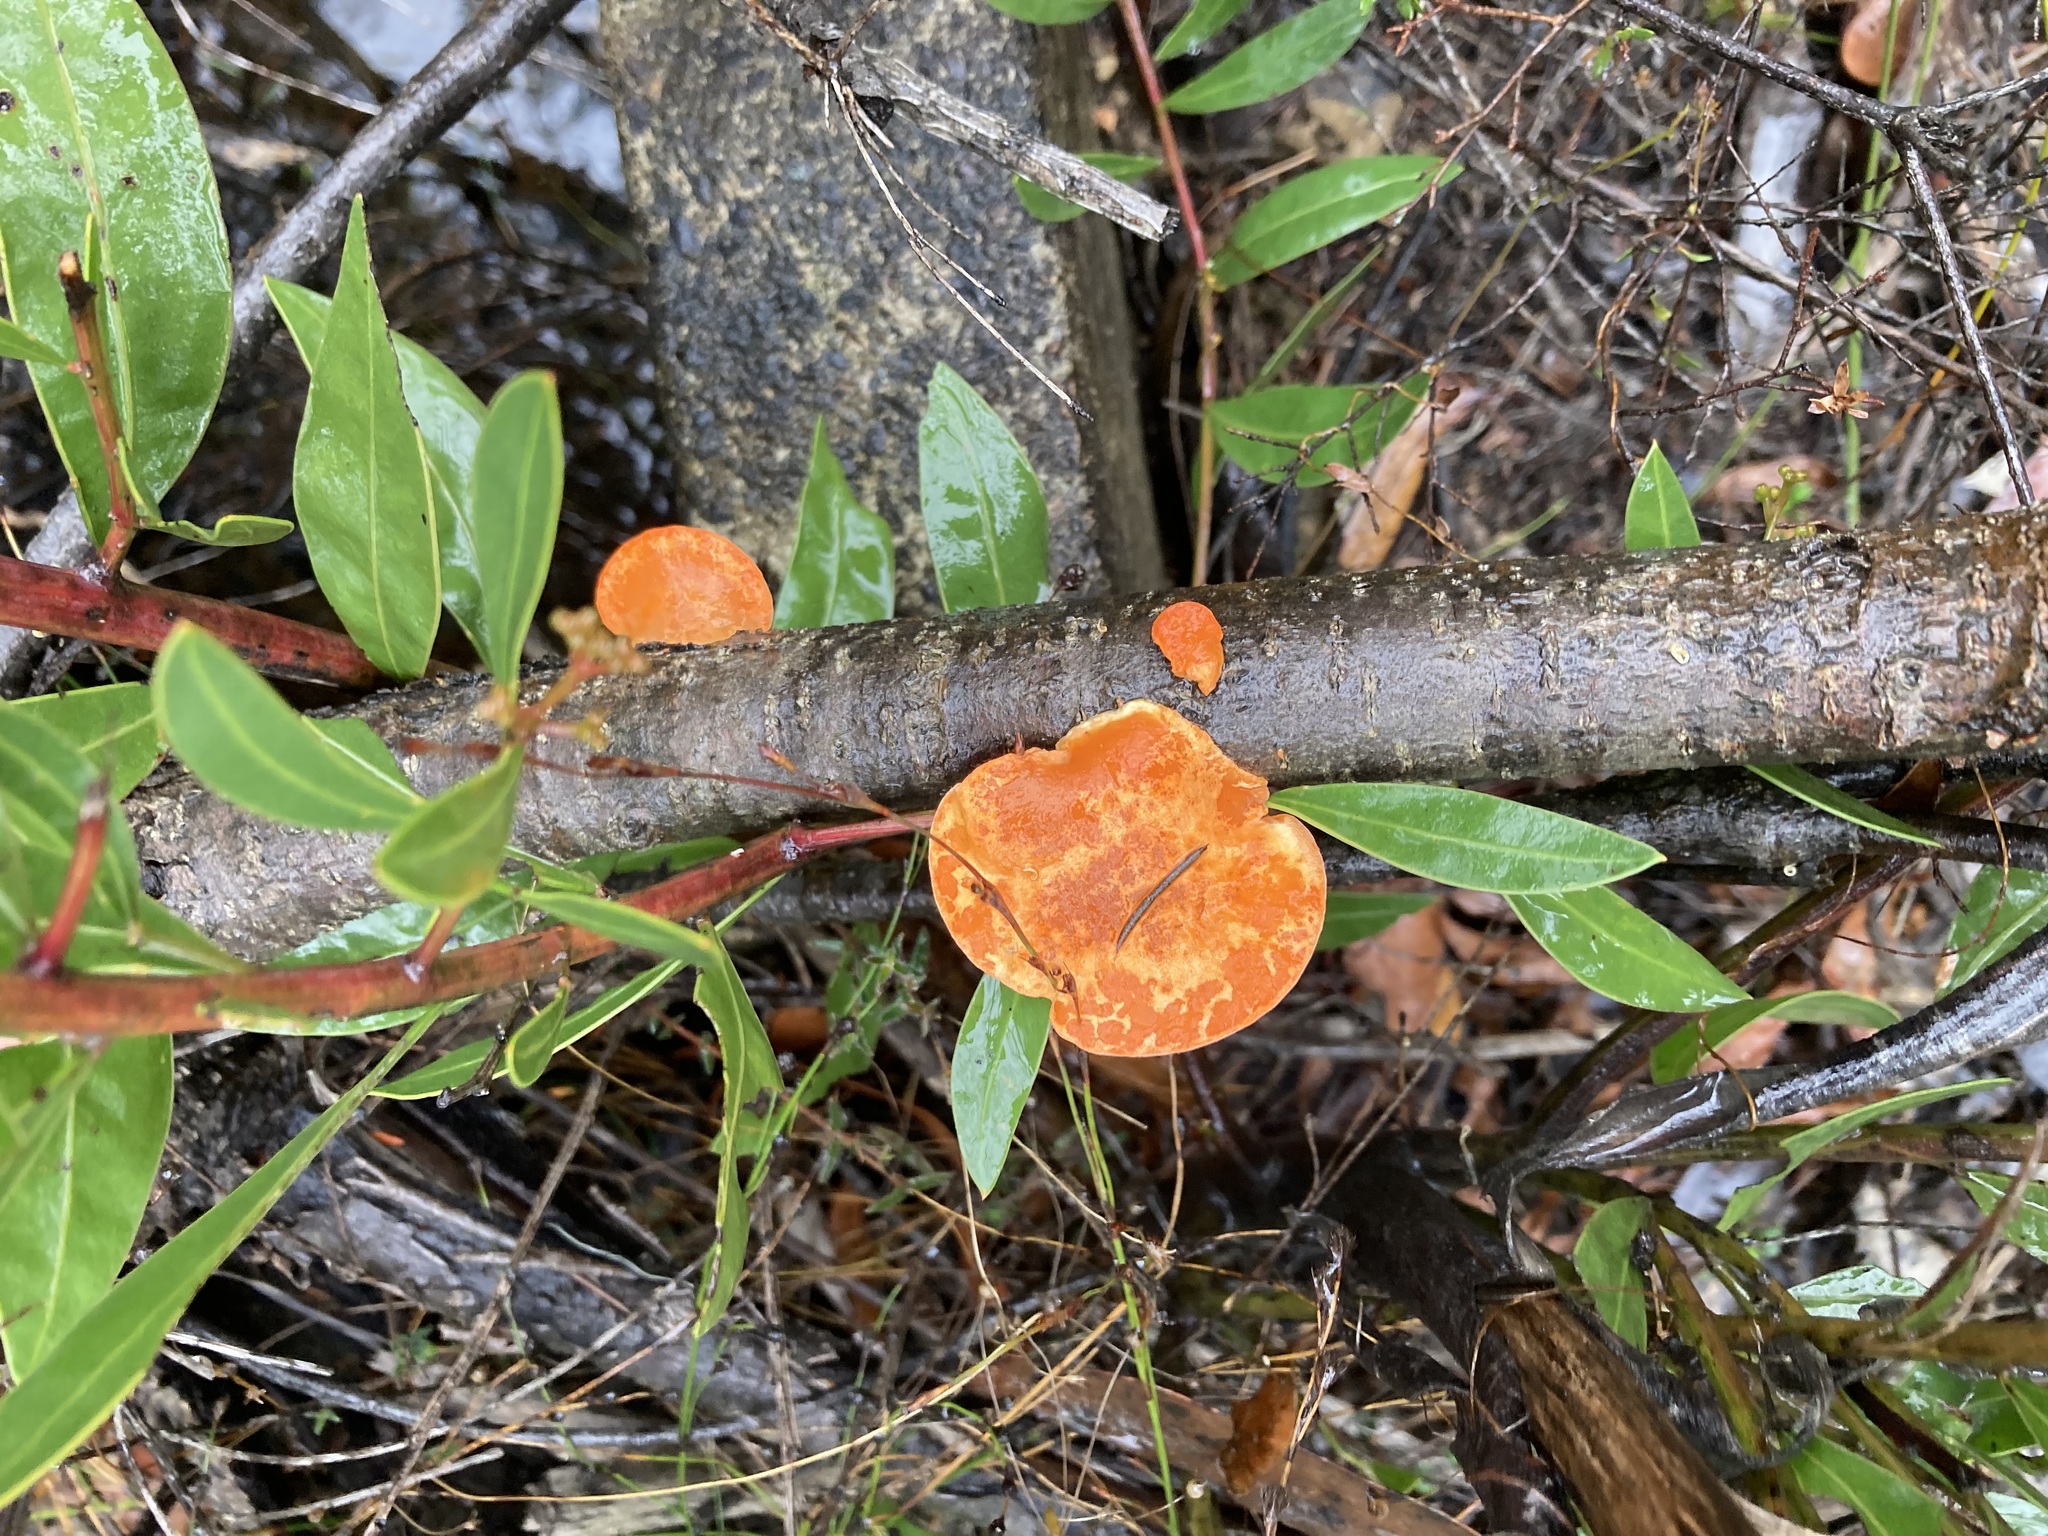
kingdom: Fungi
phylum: Basidiomycota
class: Agaricomycetes
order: Polyporales
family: Polyporaceae
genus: Trametes
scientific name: Trametes coccinea
